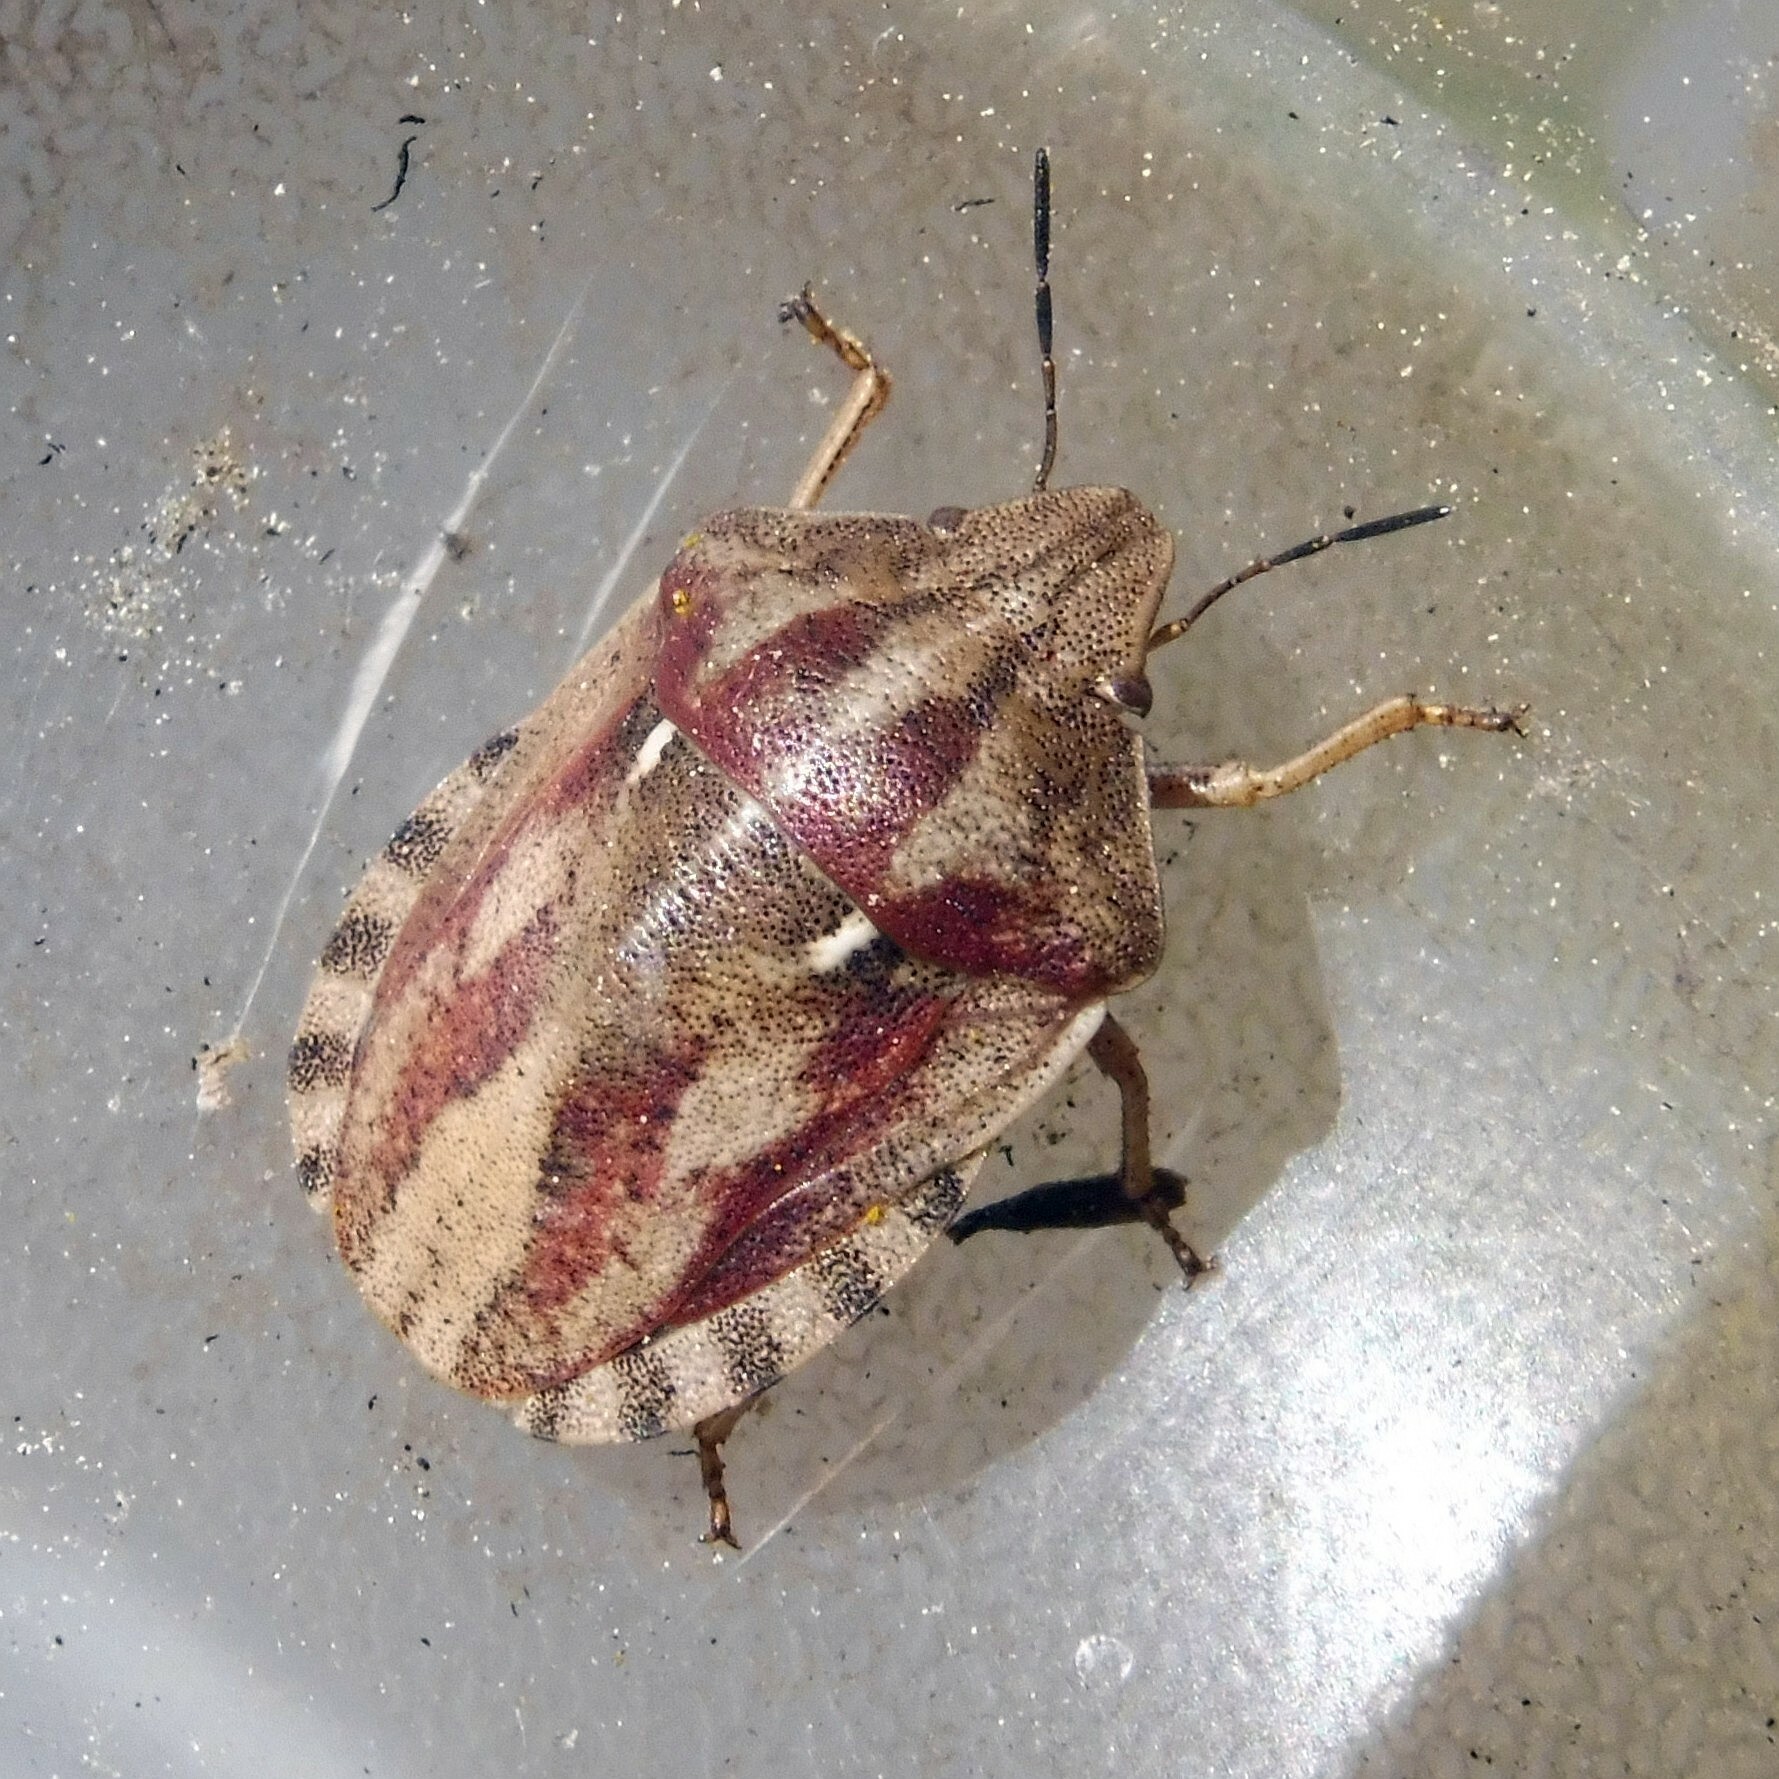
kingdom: Animalia
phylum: Arthropoda
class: Insecta
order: Hemiptera
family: Scutelleridae
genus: Eurygaster
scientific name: Eurygaster testudinaria
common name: Tortoise bug
